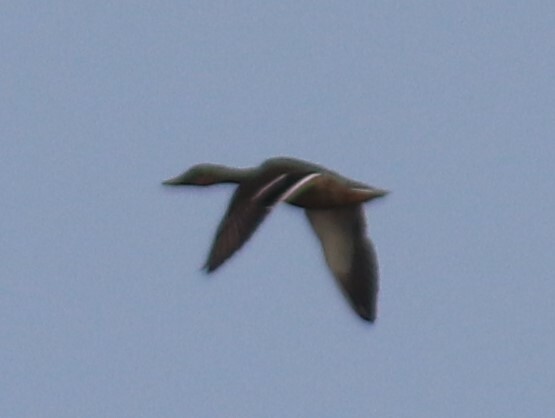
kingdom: Animalia
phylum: Chordata
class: Aves
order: Anseriformes
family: Anatidae
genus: Anas
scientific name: Anas platyrhynchos
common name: Mallard
